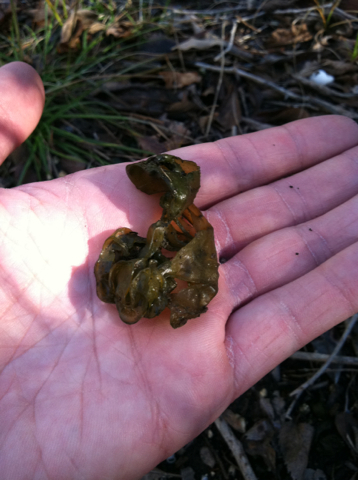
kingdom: Bacteria
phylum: Cyanobacteria
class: Cyanobacteriia
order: Cyanobacteriales
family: Nostocaceae
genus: Nostoc
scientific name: Nostoc commune
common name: Star jelly
